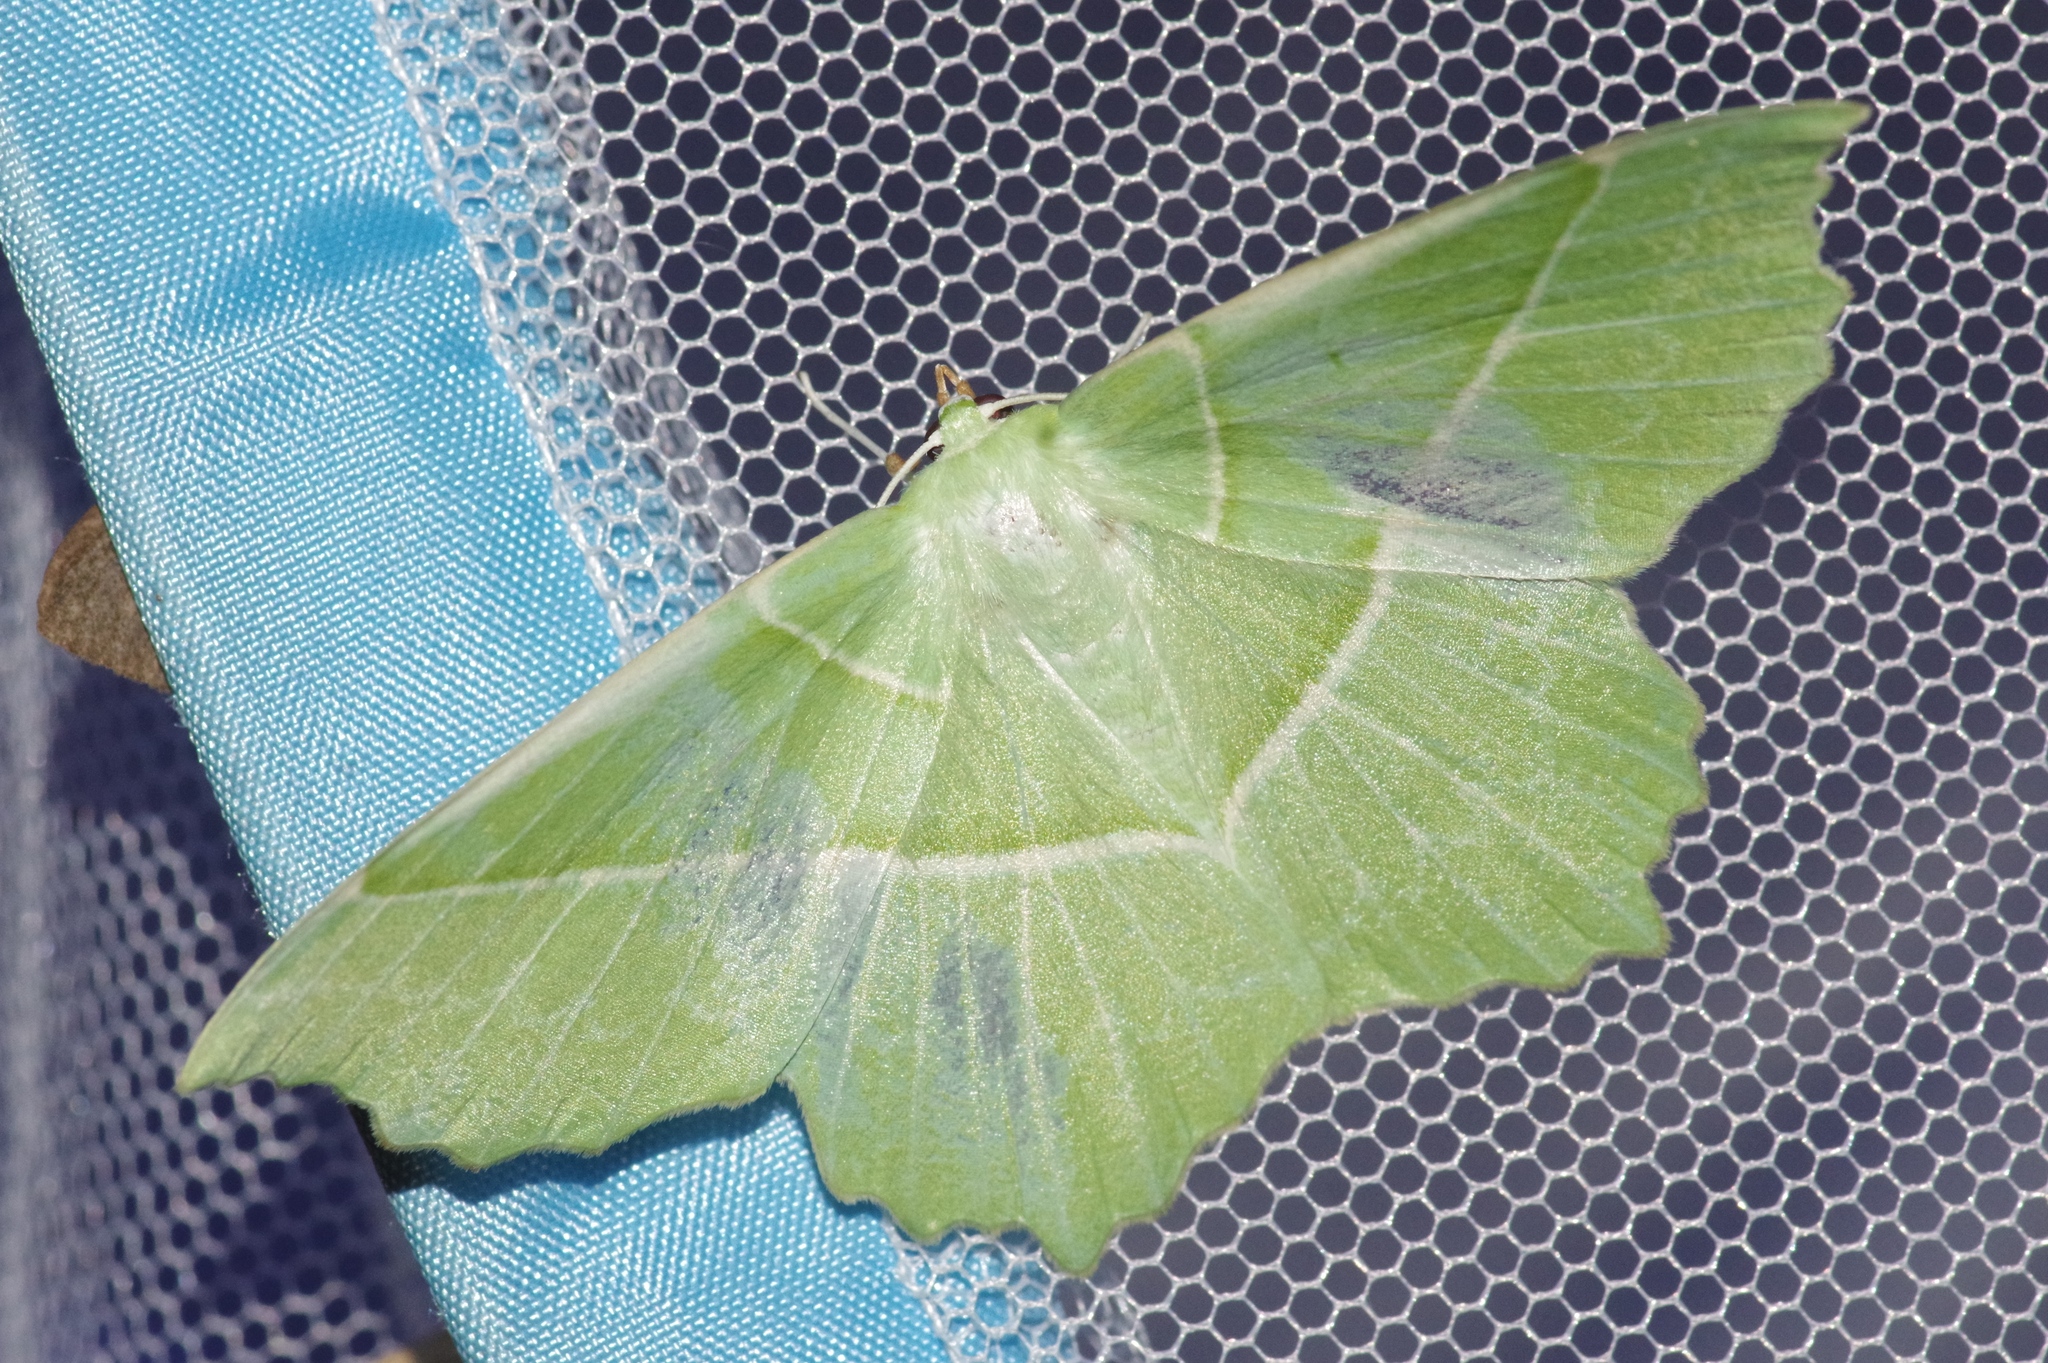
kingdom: Animalia
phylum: Arthropoda
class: Insecta
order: Lepidoptera
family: Geometridae
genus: Geometra
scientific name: Geometra valida
